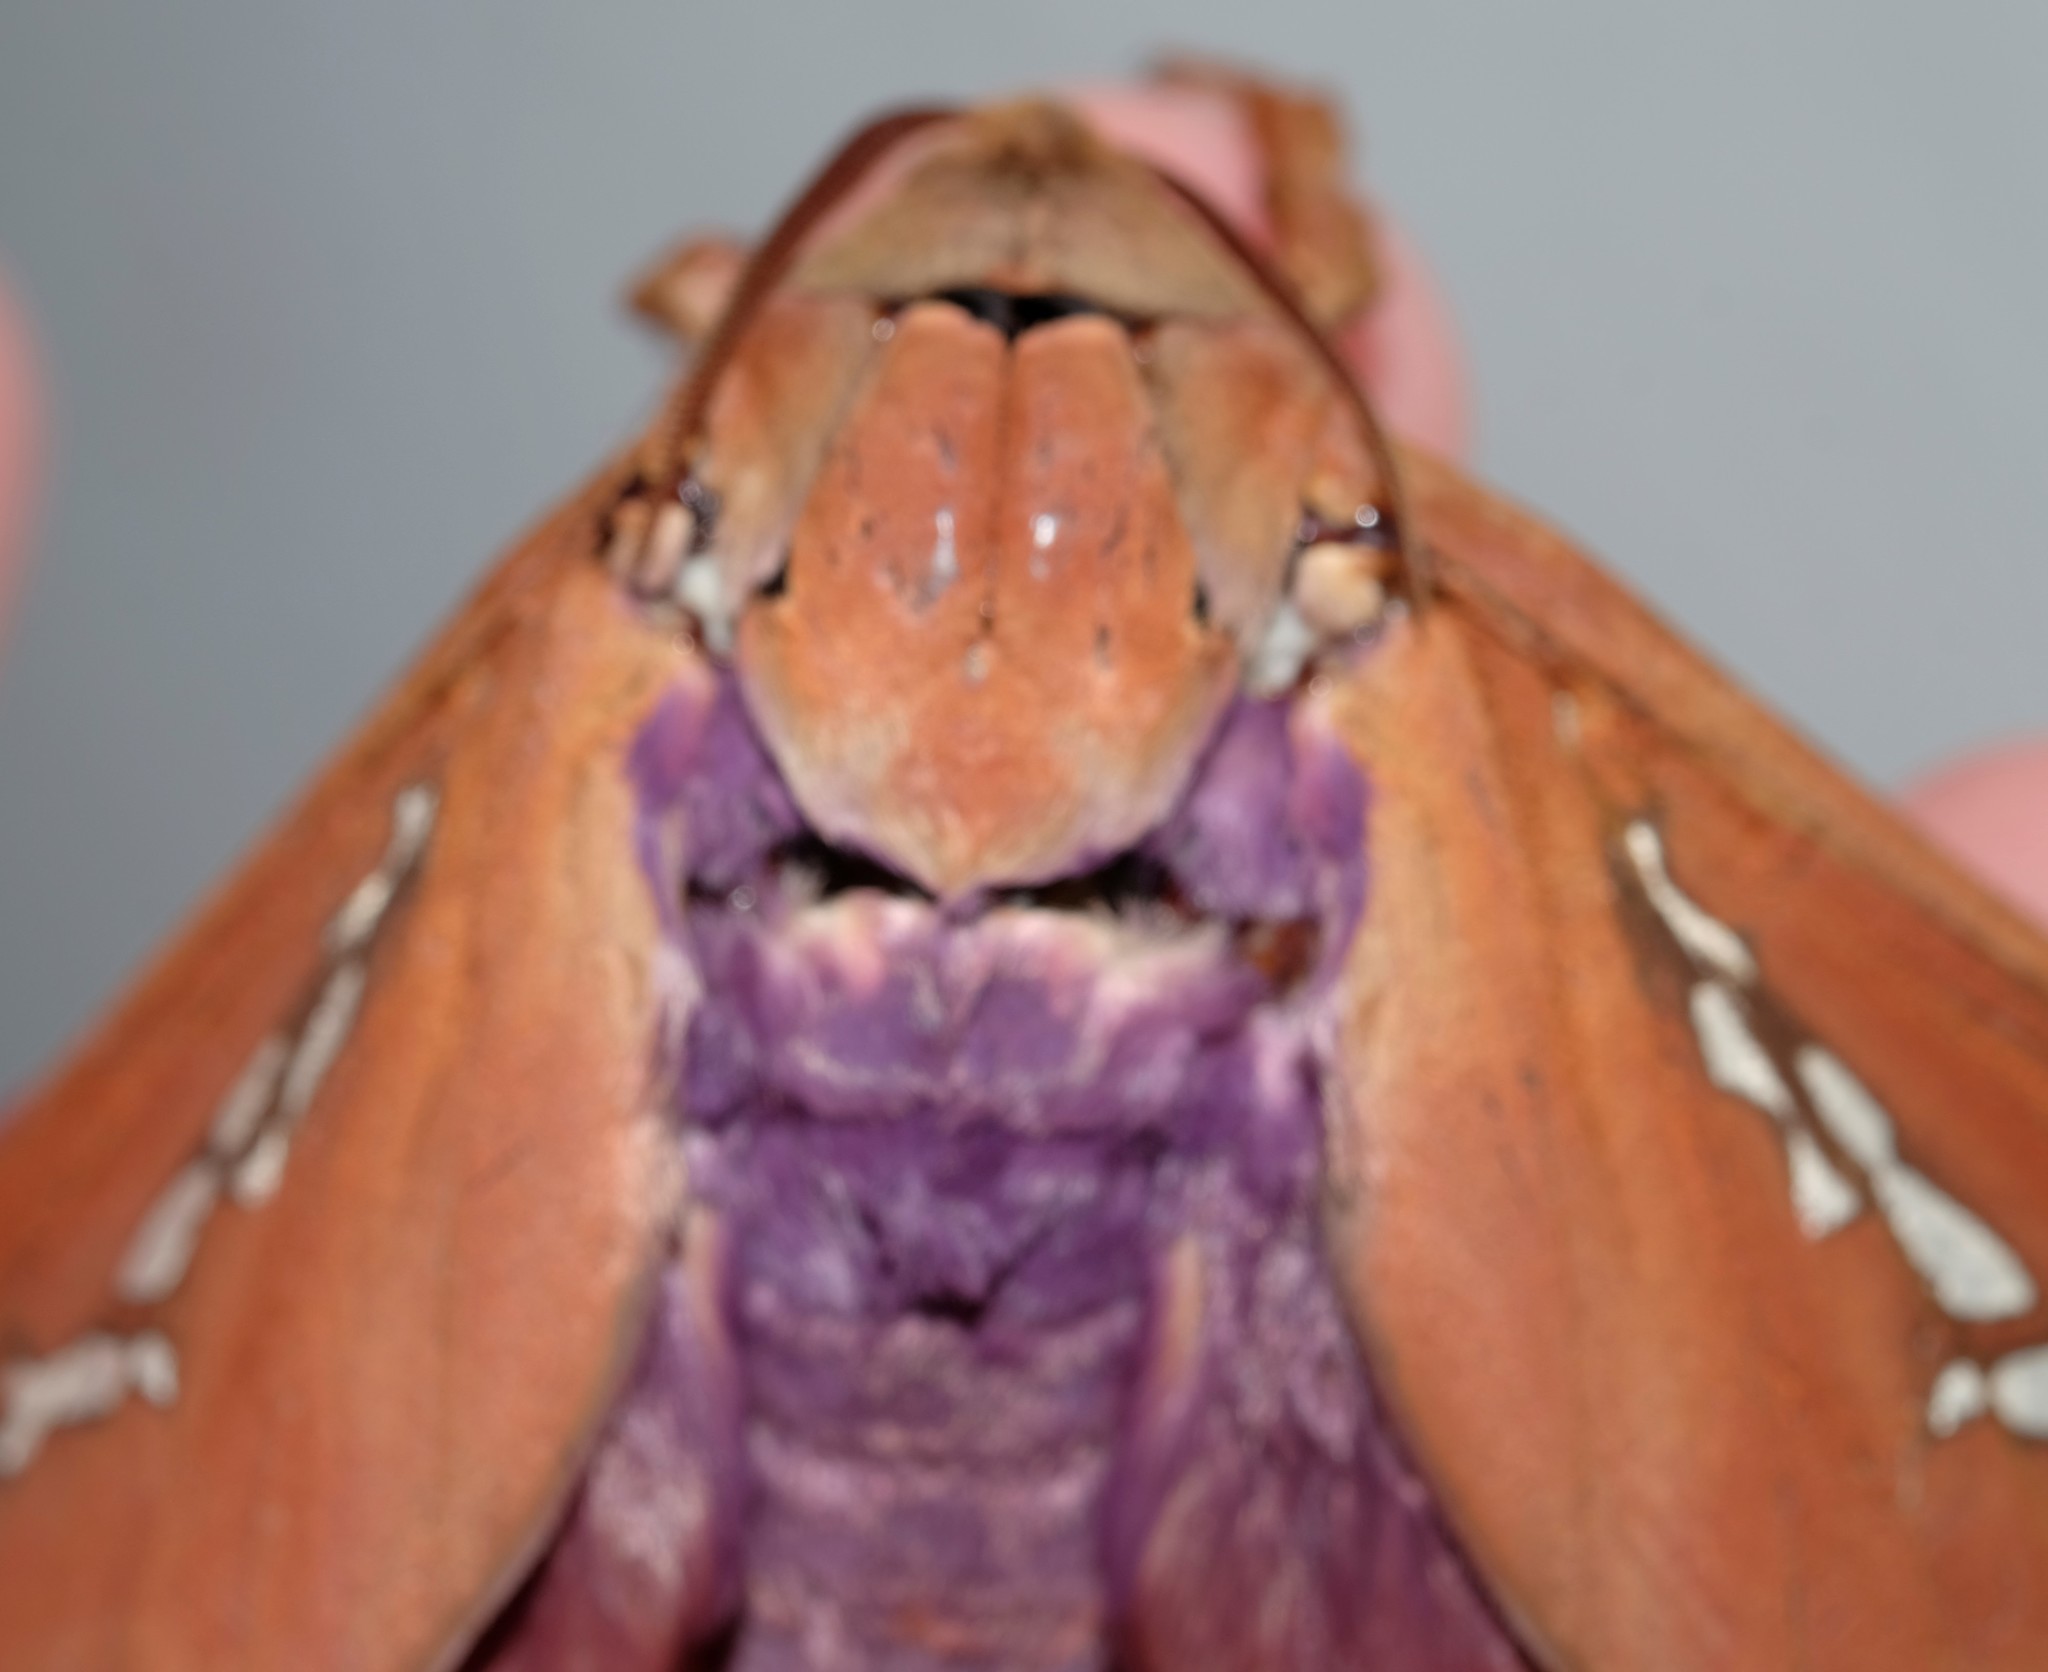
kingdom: Animalia
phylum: Arthropoda
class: Insecta
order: Lepidoptera
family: Hepialidae
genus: Abantiades
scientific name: Abantiades hyalinatus
